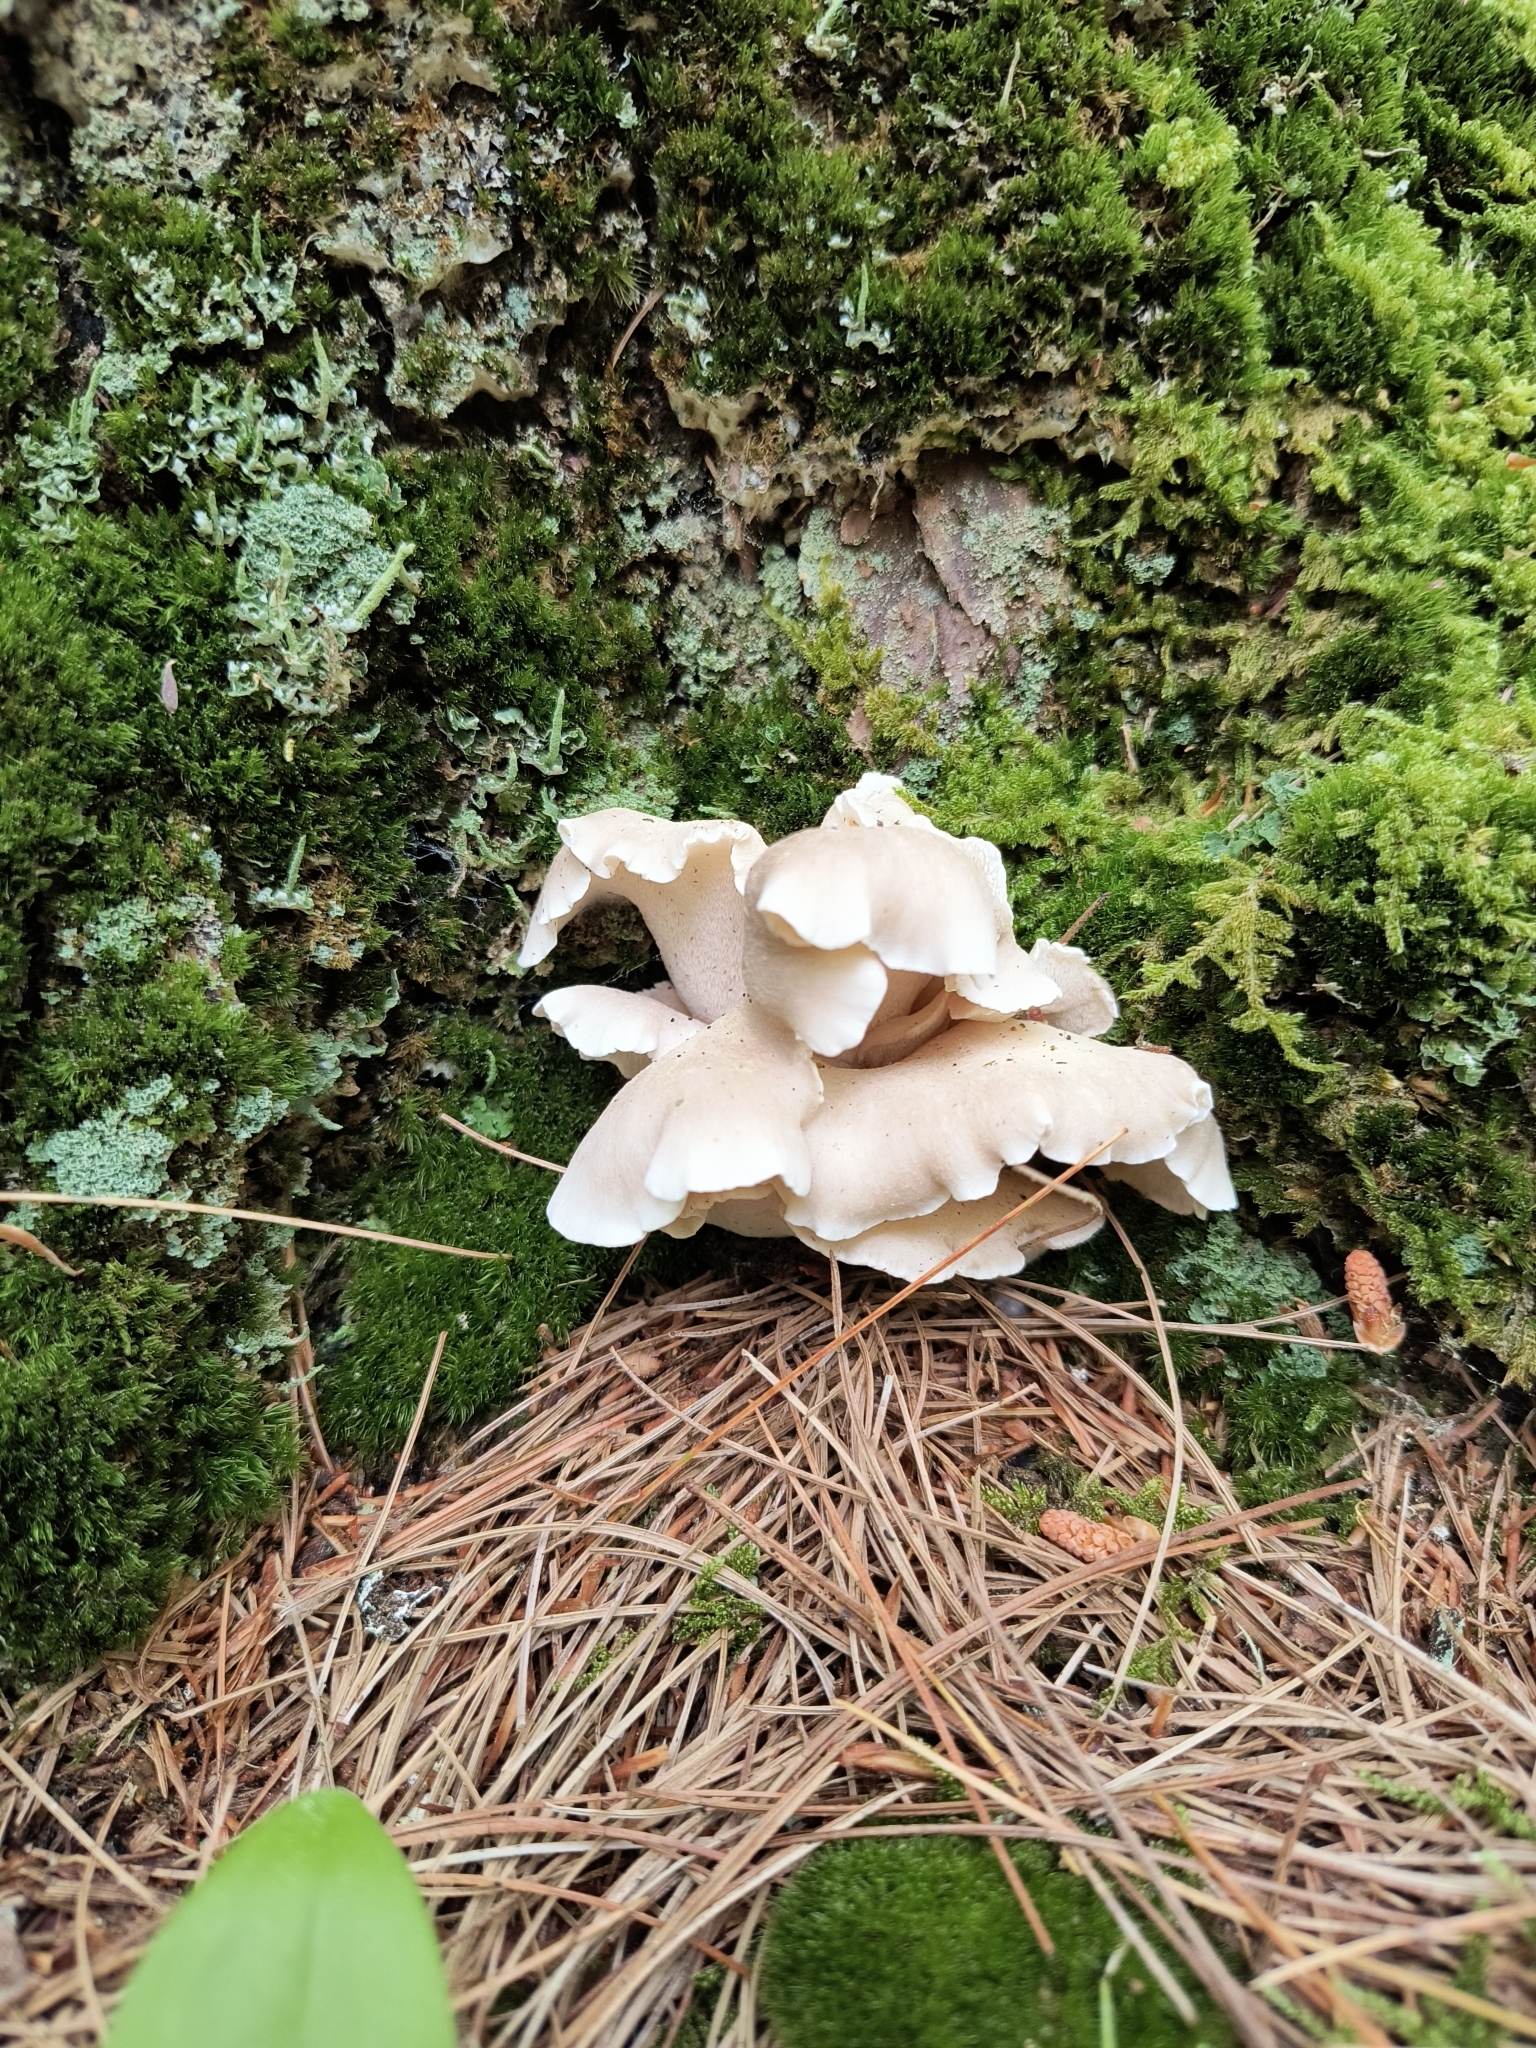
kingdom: Fungi
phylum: Basidiomycota
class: Agaricomycetes
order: Polyporales
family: Dacryobolaceae
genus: Osteina
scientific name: Osteina obducta
